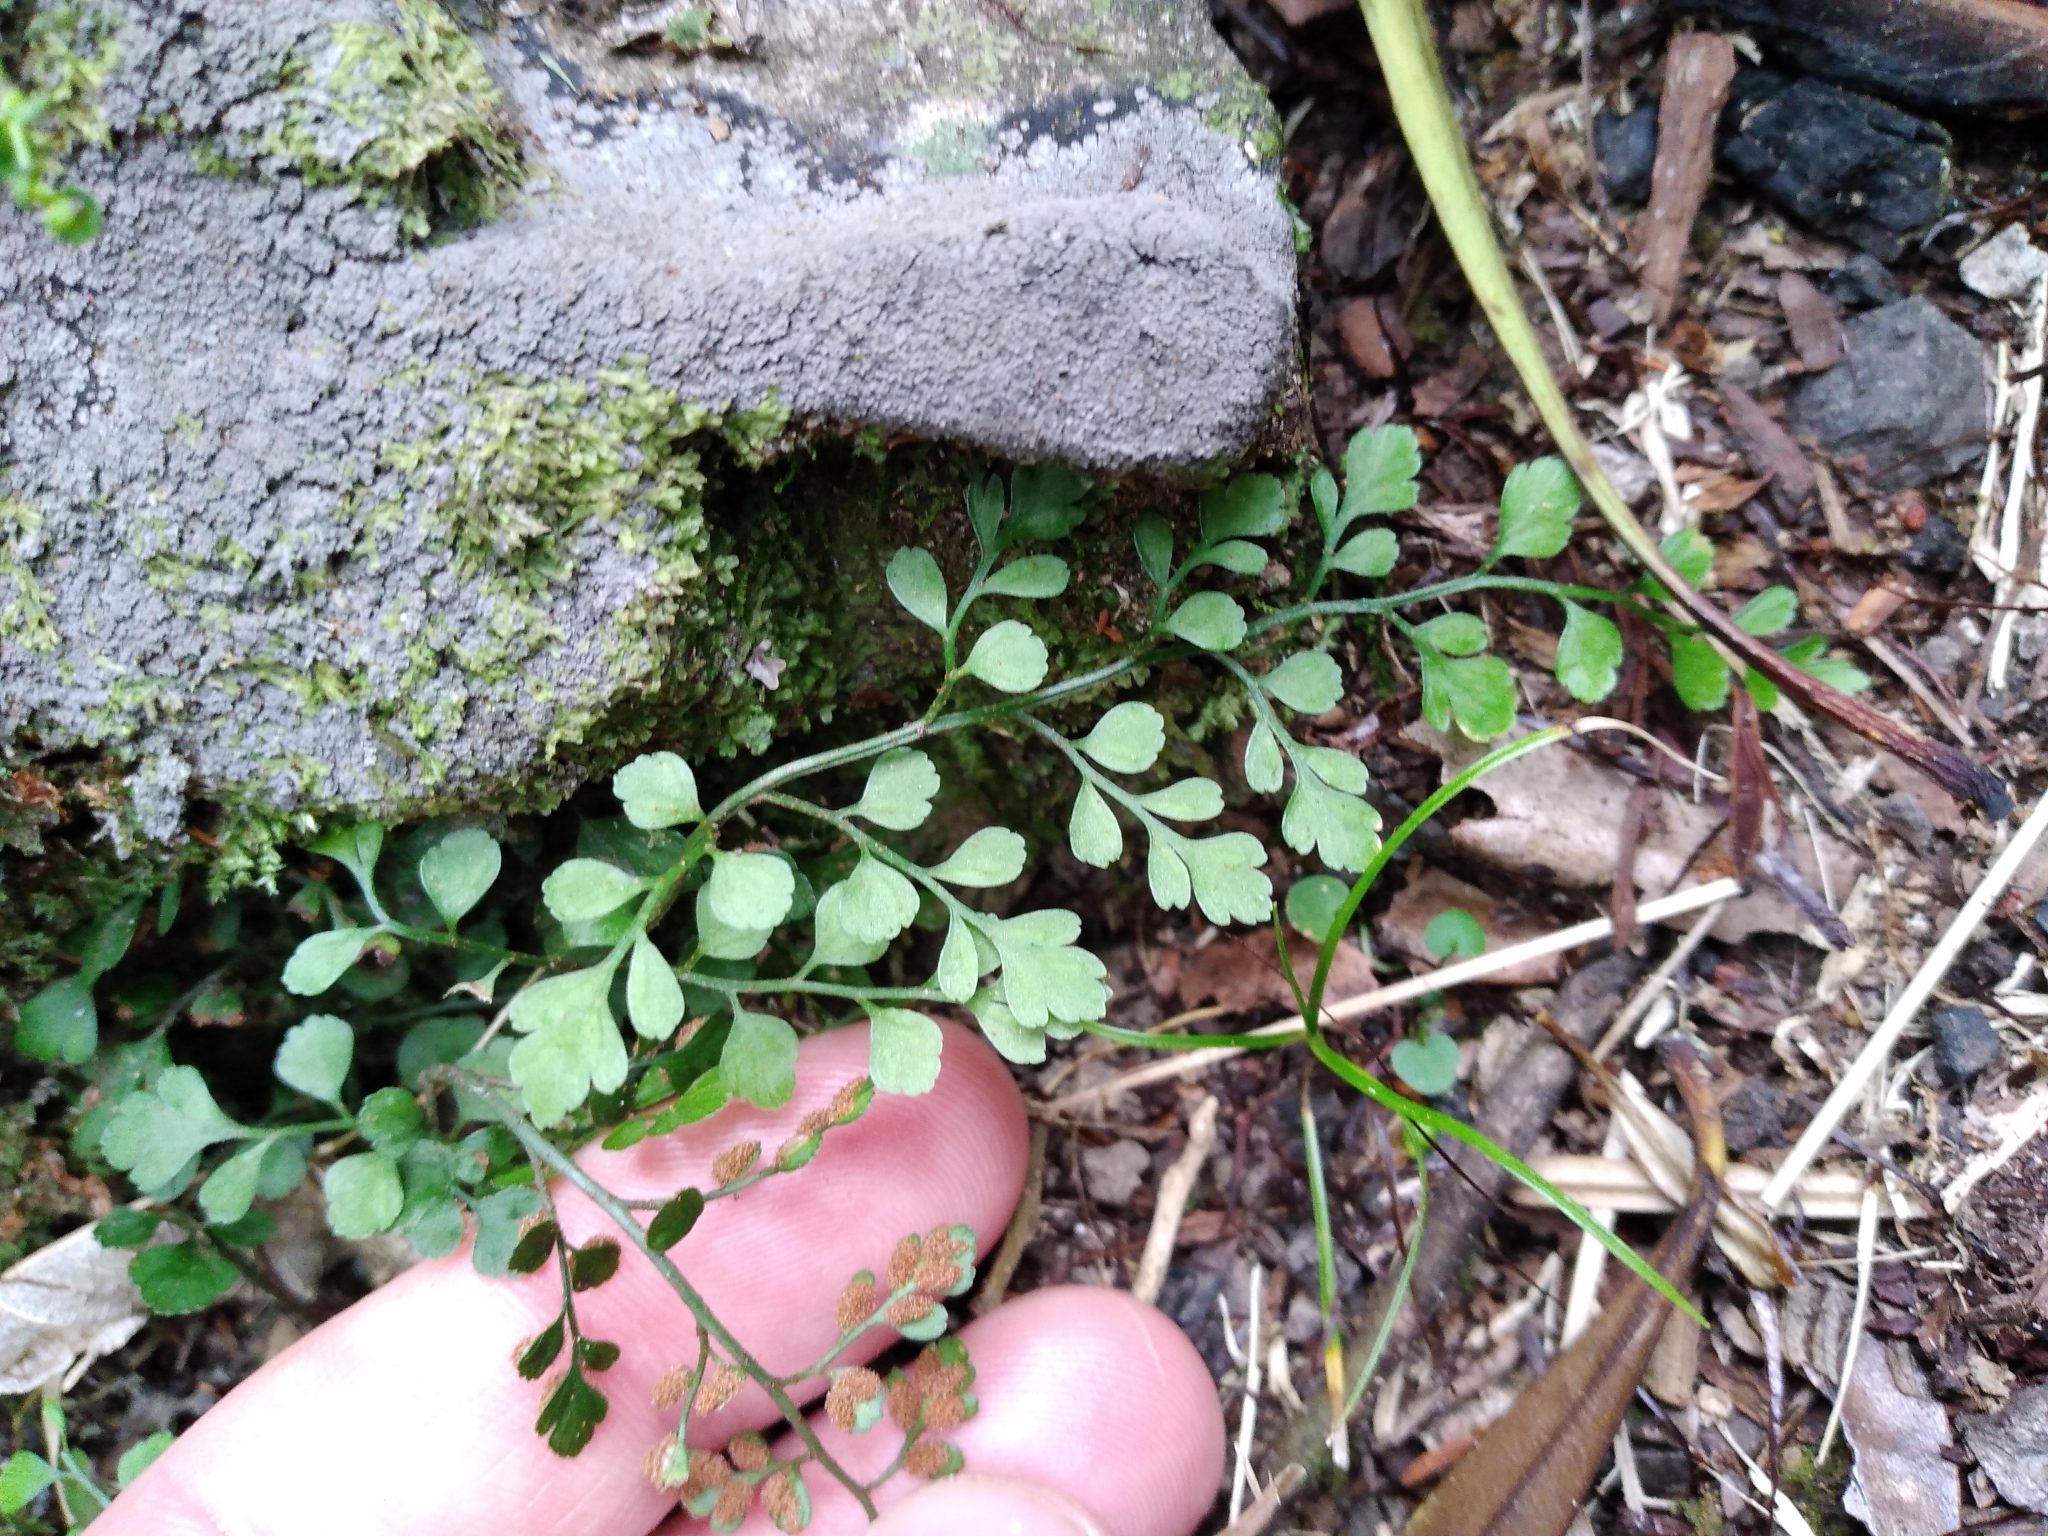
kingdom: Plantae
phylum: Tracheophyta
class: Polypodiopsida
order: Polypodiales
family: Aspleniaceae
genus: Asplenium
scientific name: Asplenium hookerianum
